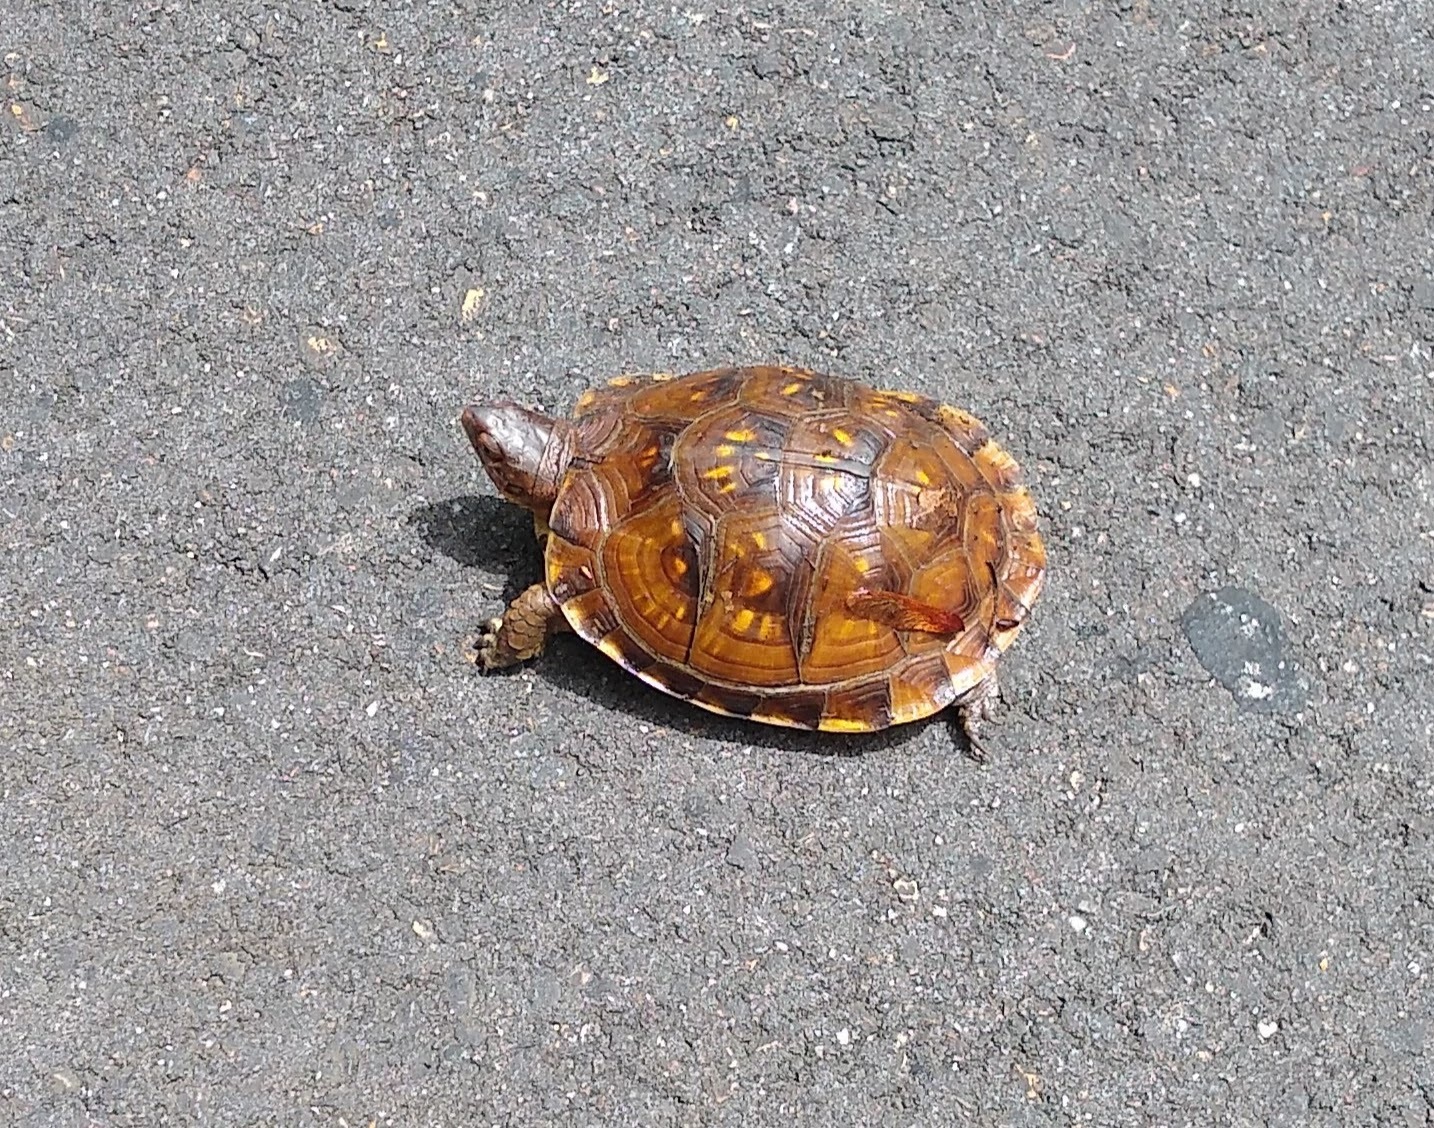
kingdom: Animalia
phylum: Chordata
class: Testudines
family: Emydidae
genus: Terrapene
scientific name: Terrapene carolina
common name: Common box turtle
